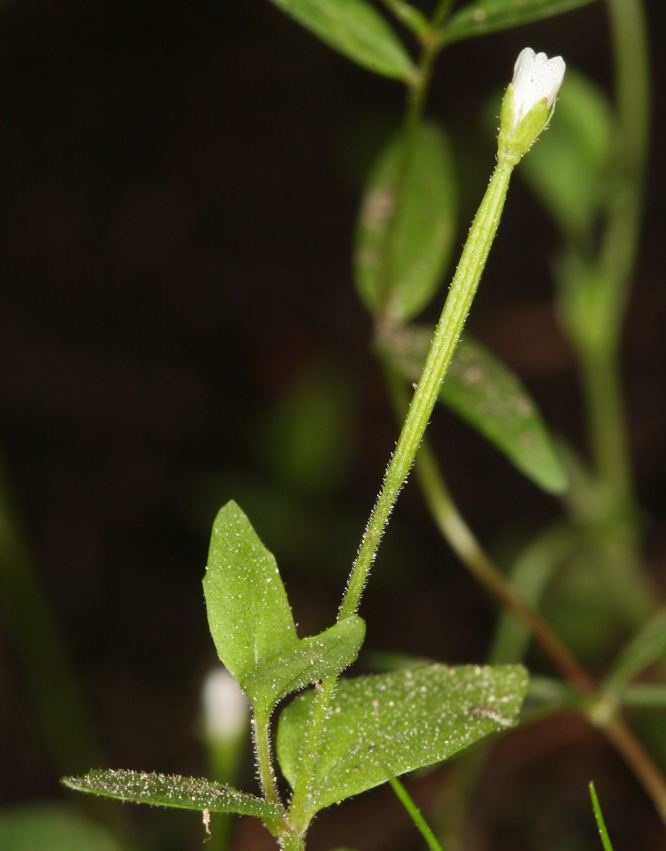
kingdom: Plantae
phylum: Tracheophyta
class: Magnoliopsida
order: Myrtales
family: Onagraceae
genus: Epilobium
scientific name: Epilobium howellii
